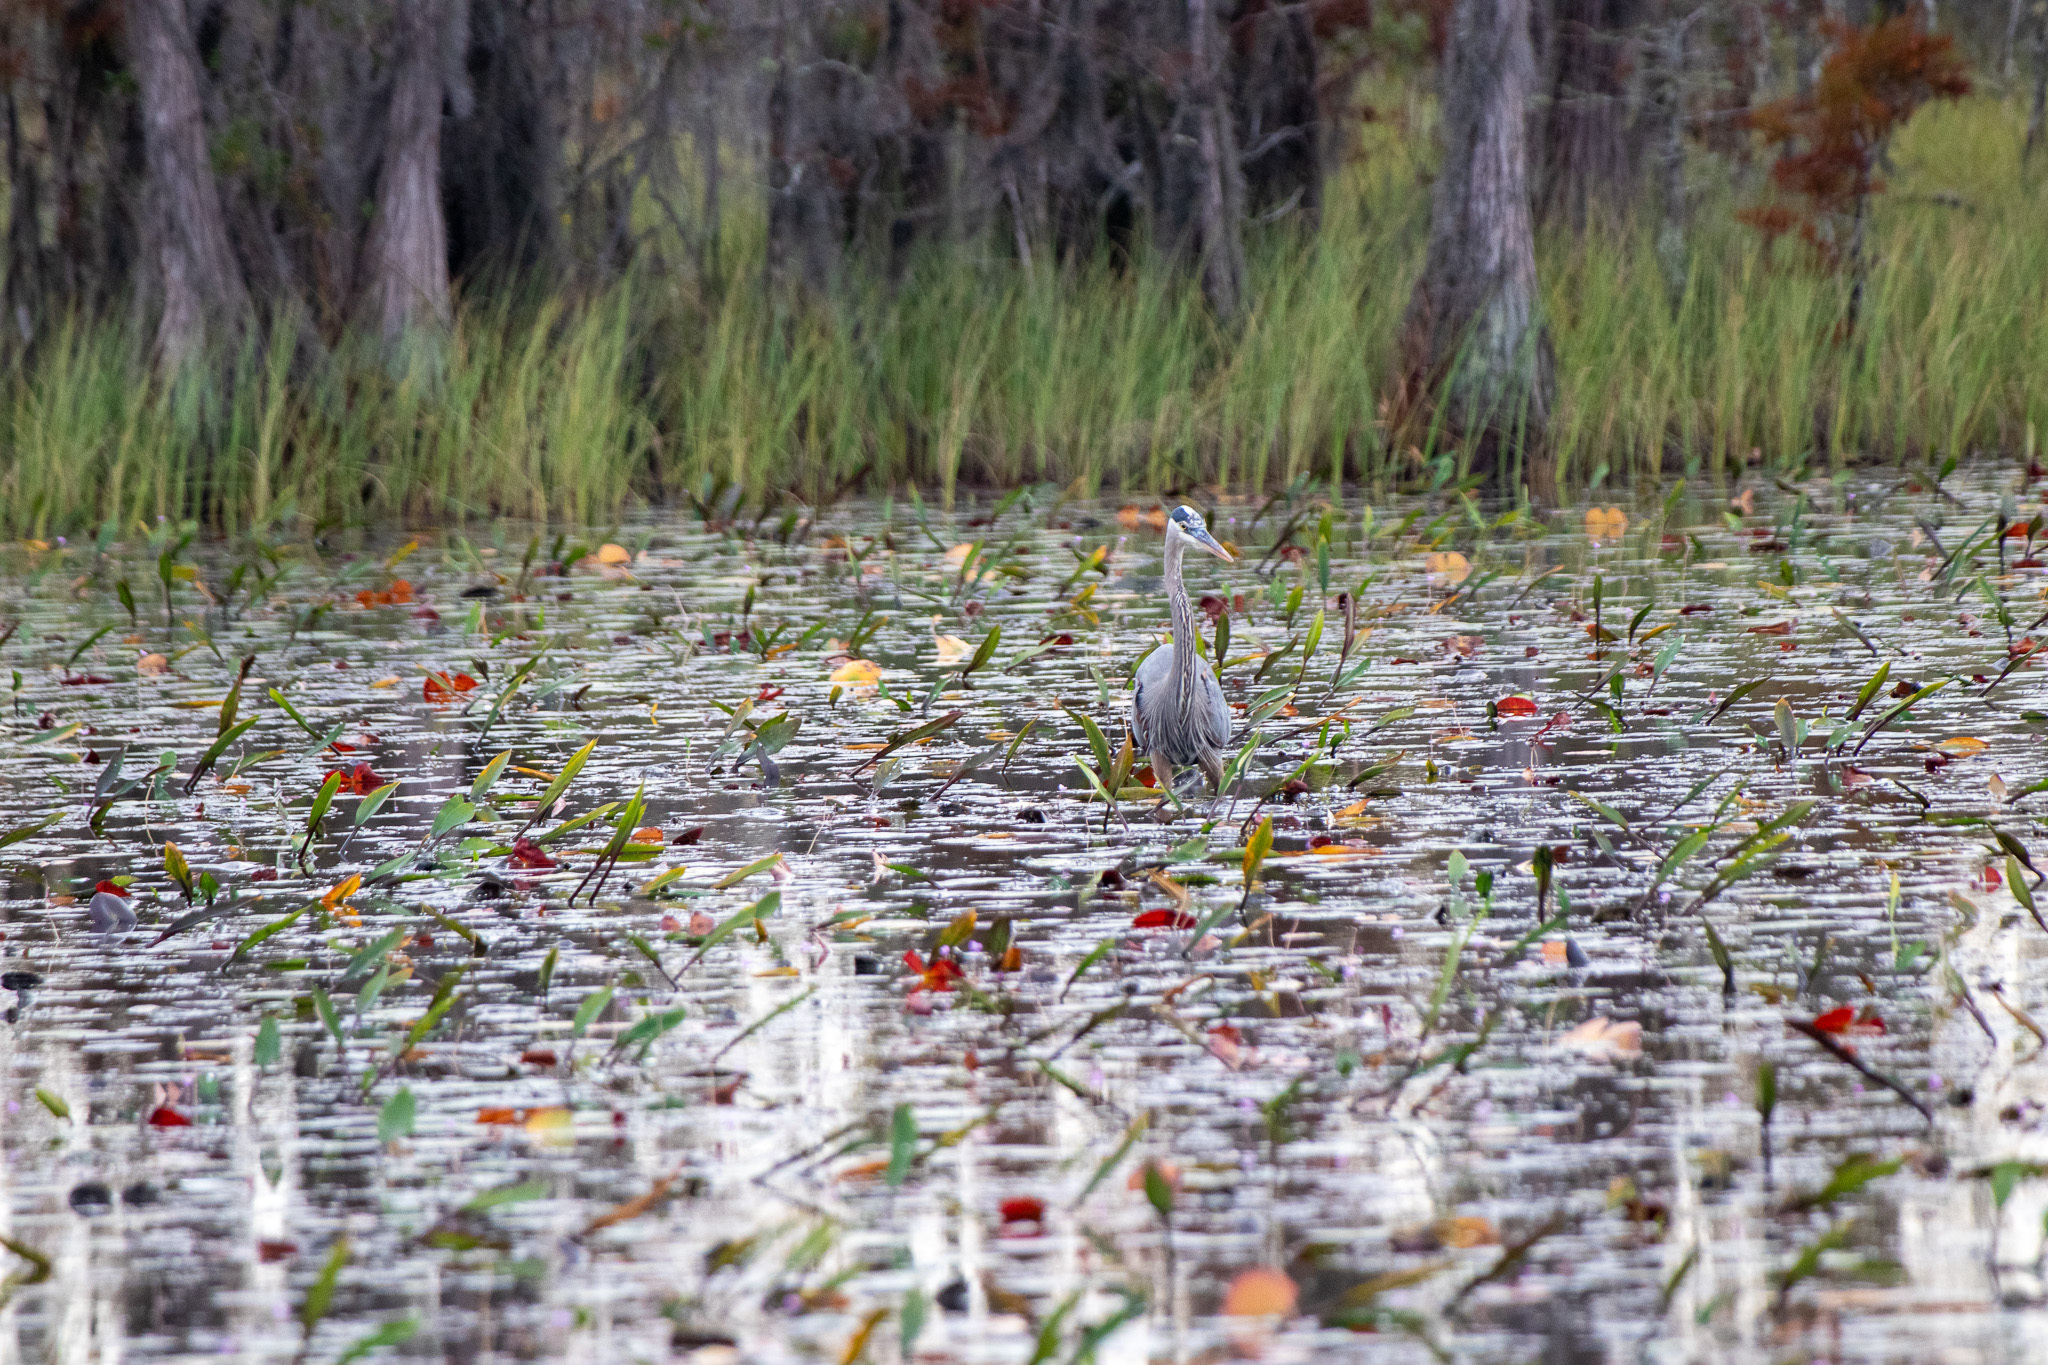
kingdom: Animalia
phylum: Chordata
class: Aves
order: Pelecaniformes
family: Ardeidae
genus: Ardea
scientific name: Ardea herodias
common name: Great blue heron
